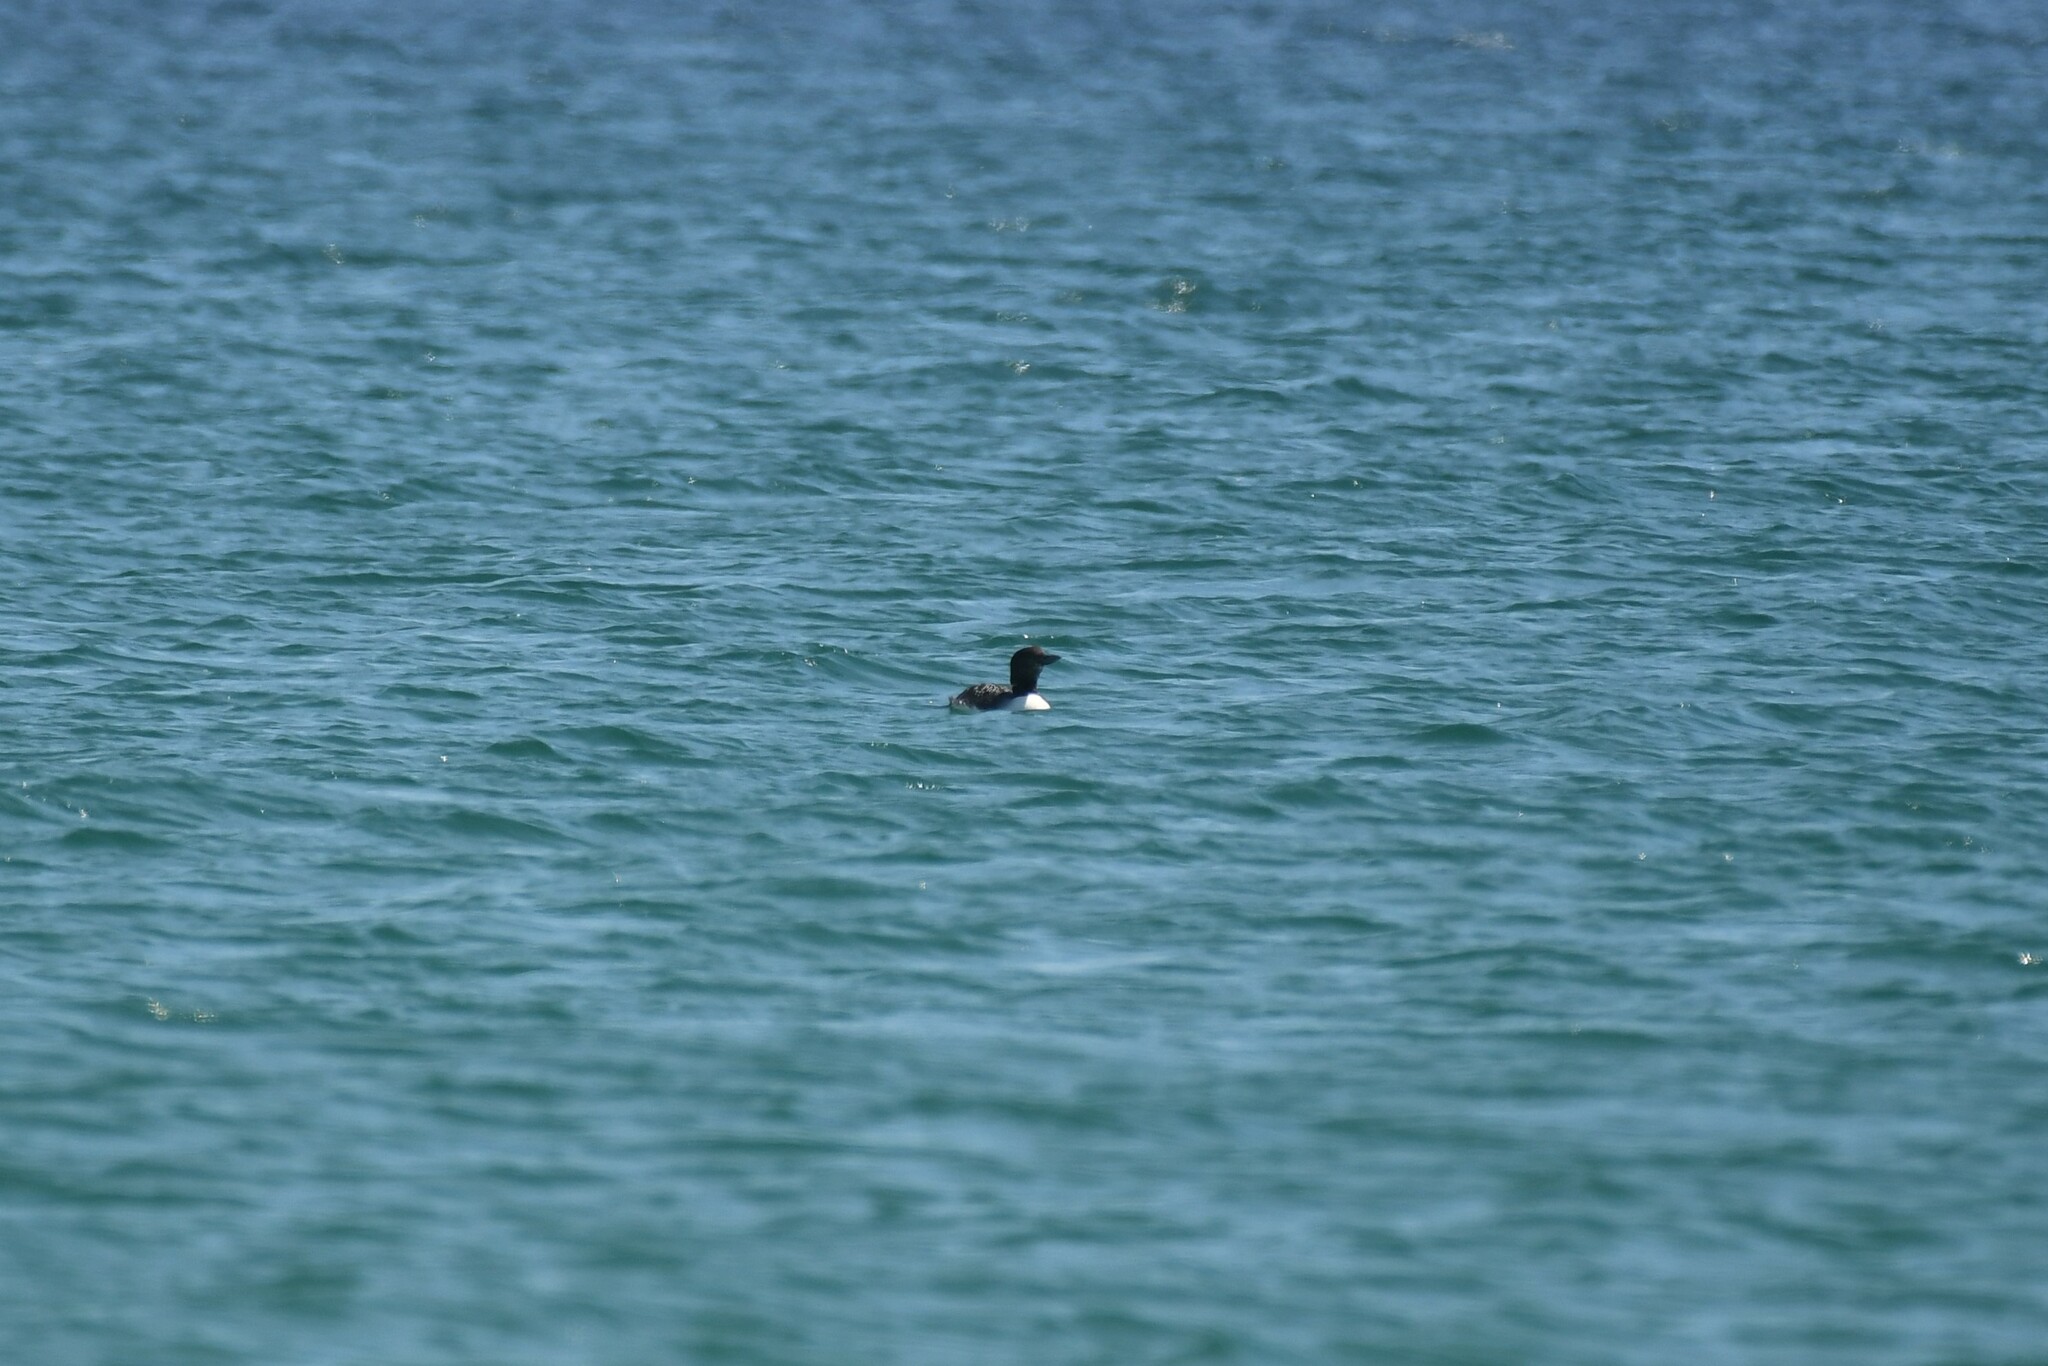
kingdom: Animalia
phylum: Chordata
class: Aves
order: Gaviiformes
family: Gaviidae
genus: Gavia
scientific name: Gavia immer
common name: Common loon
